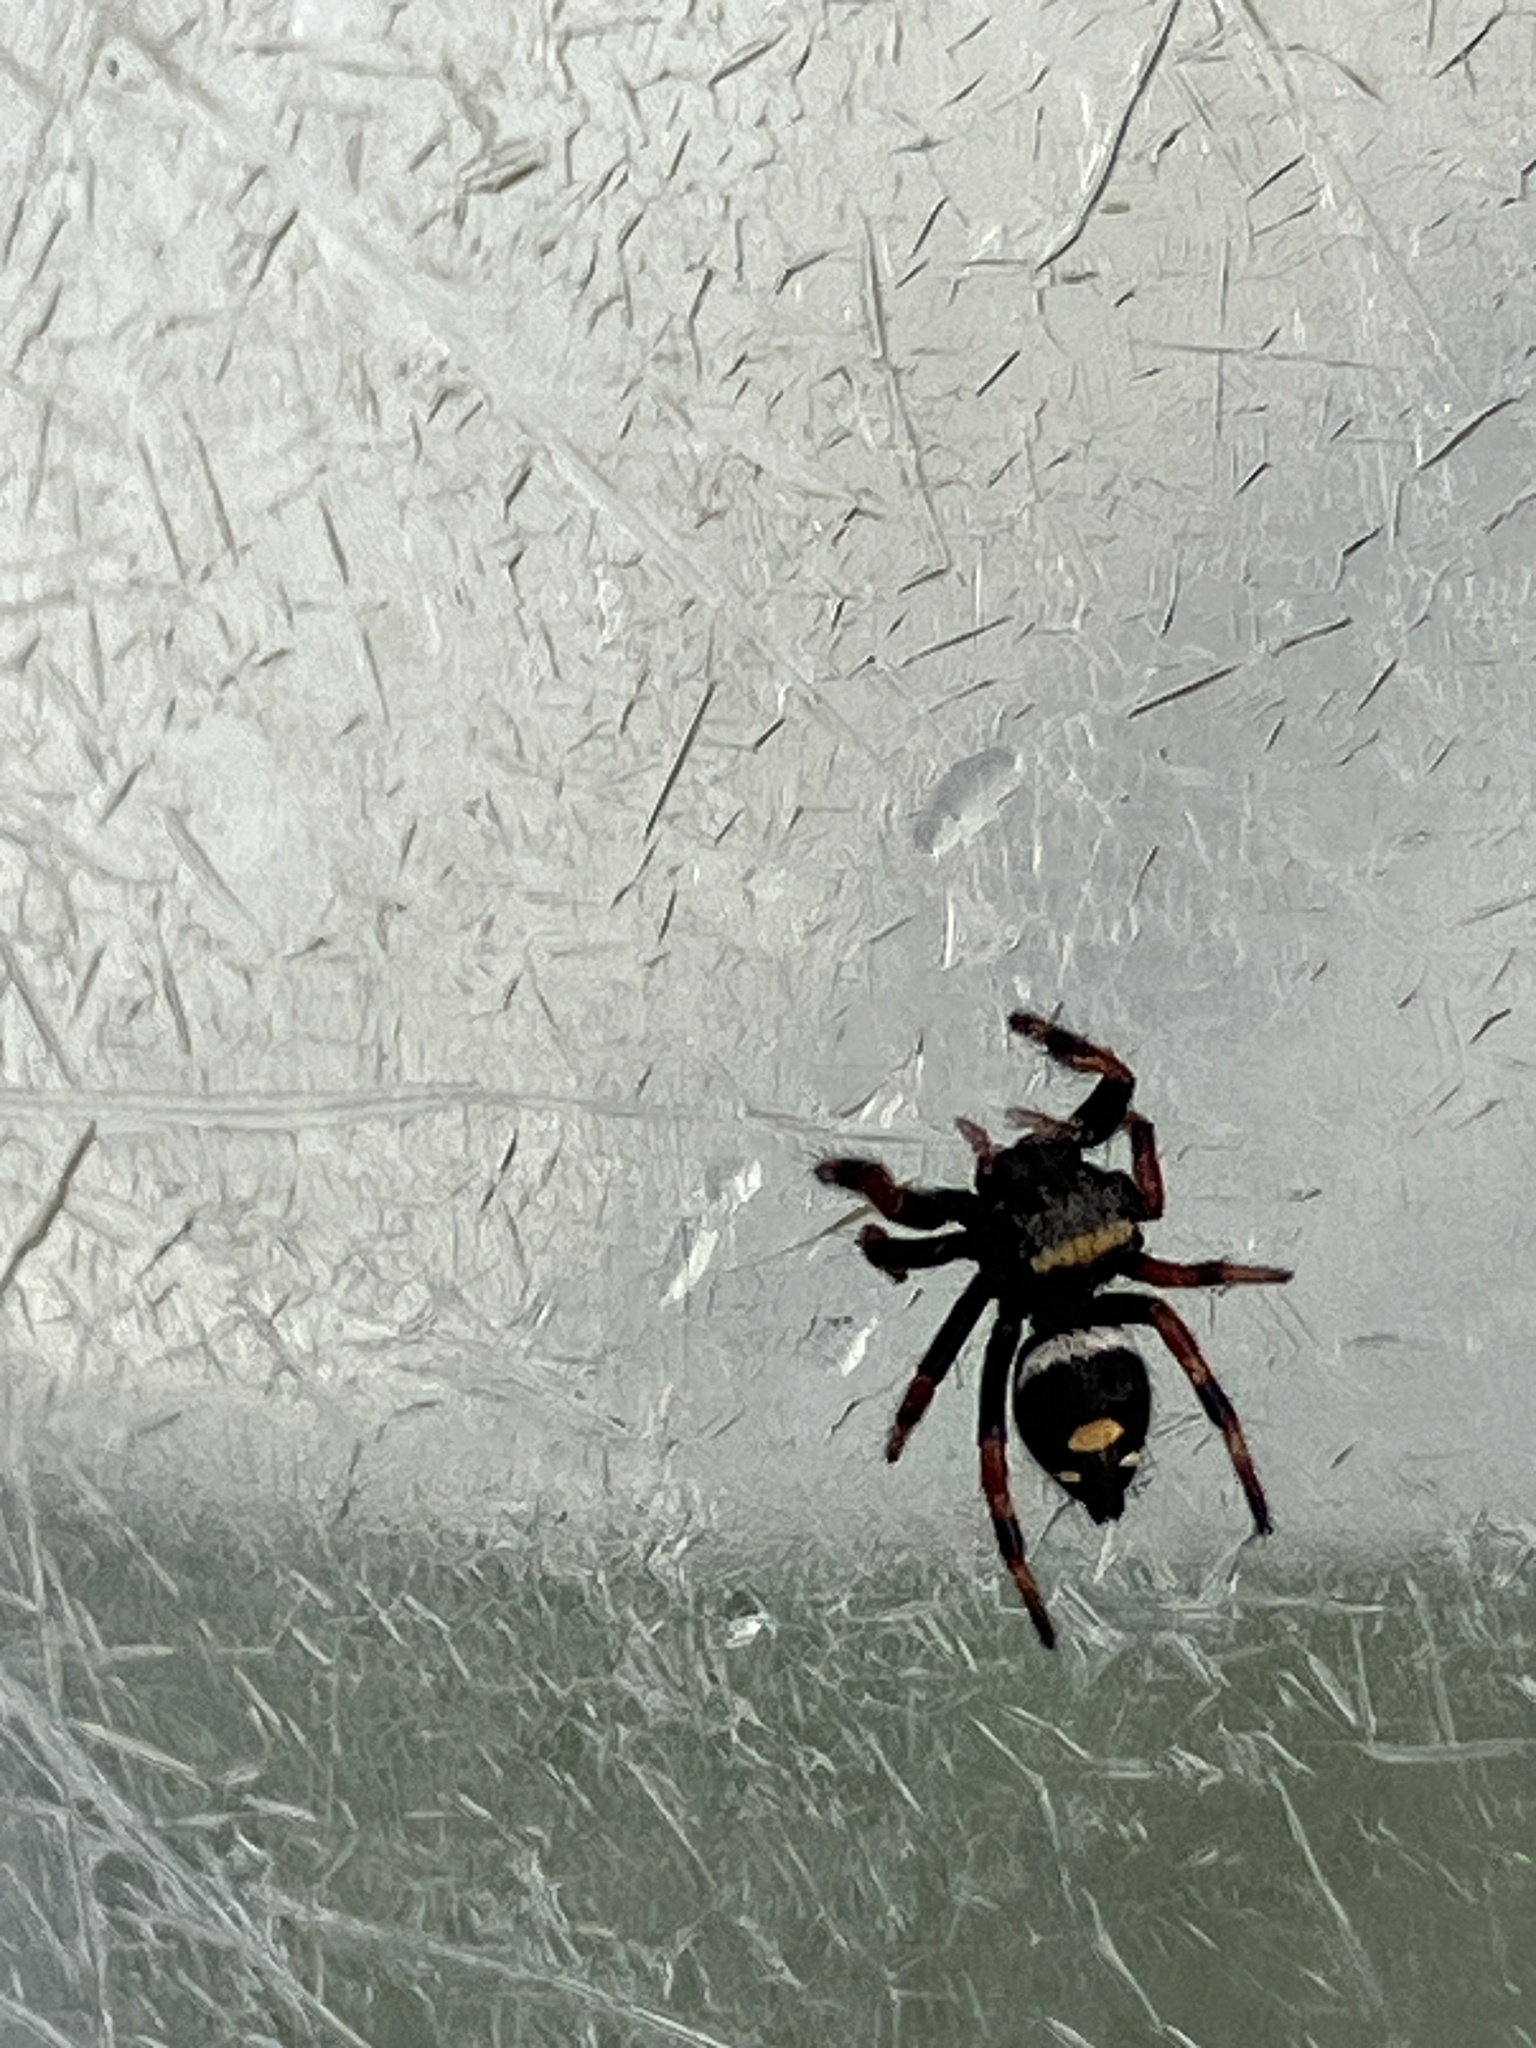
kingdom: Animalia
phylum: Arthropoda
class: Arachnida
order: Araneae
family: Salticidae
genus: Phidippus
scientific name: Phidippus regius
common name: Regal jumper
